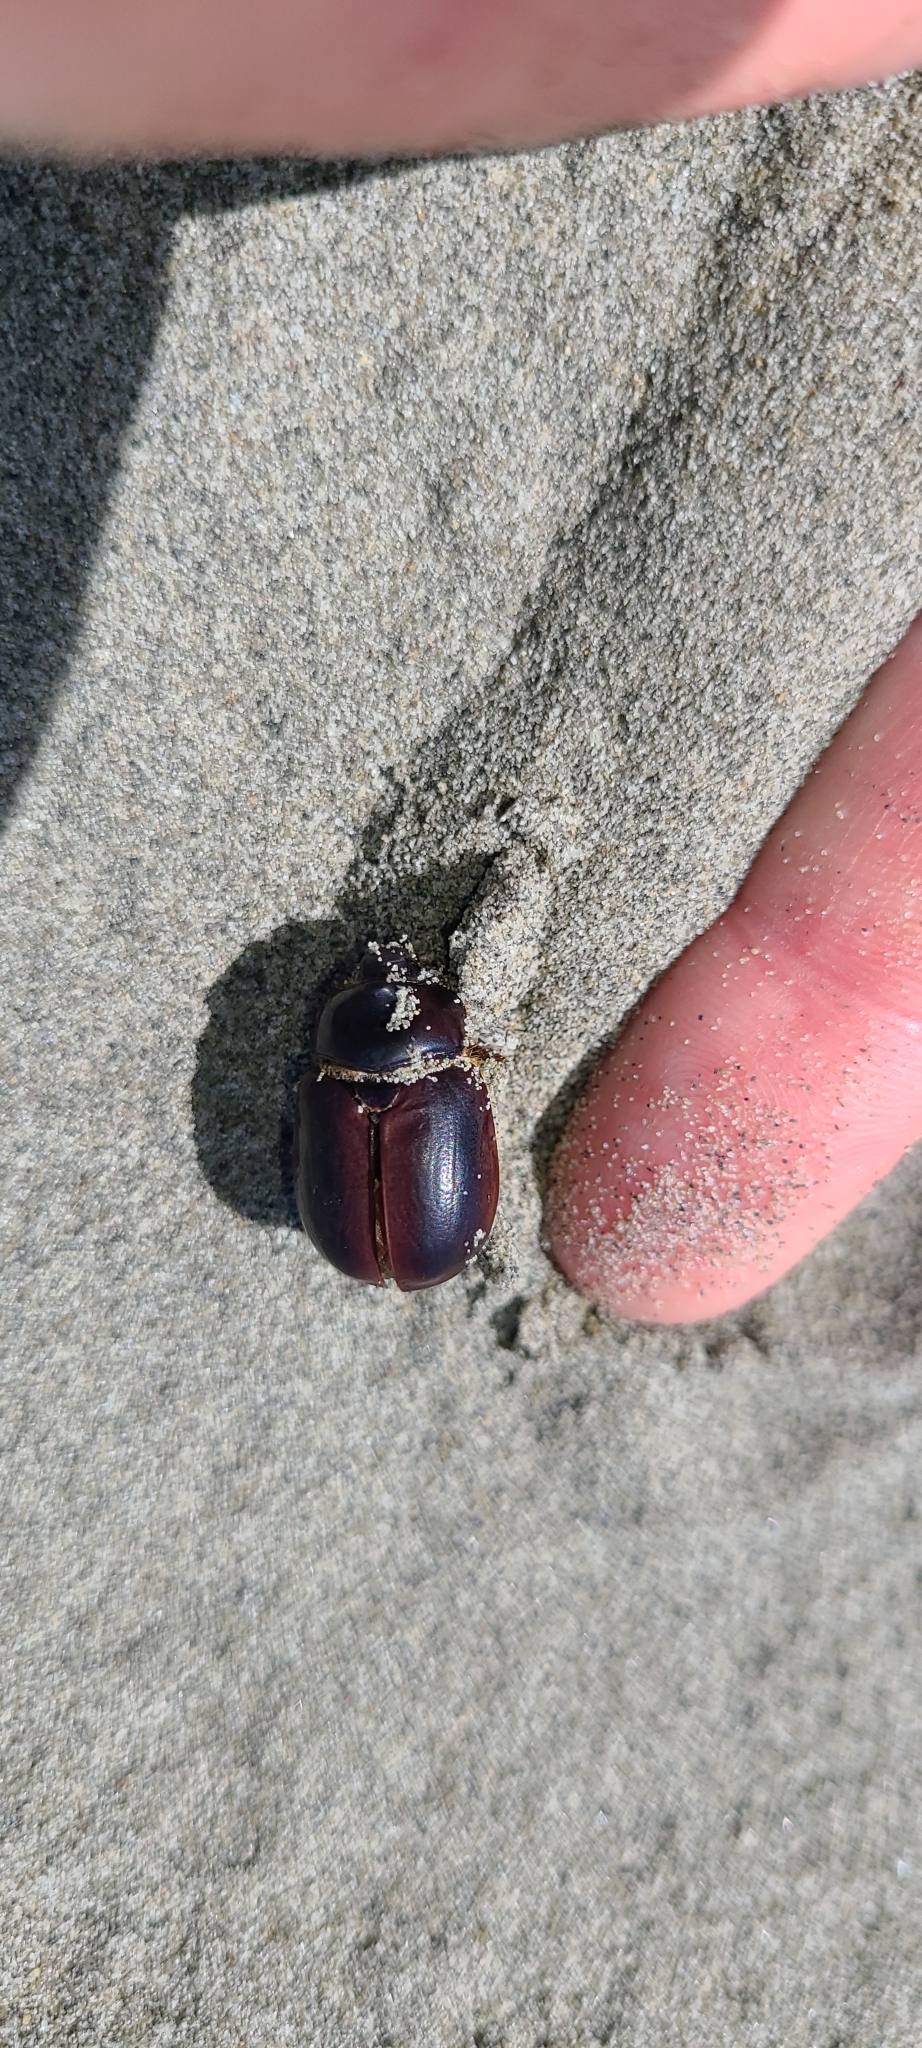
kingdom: Animalia
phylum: Arthropoda
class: Insecta
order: Coleoptera
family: Scarabaeidae
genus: Pericoptus
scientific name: Pericoptus truncatus
